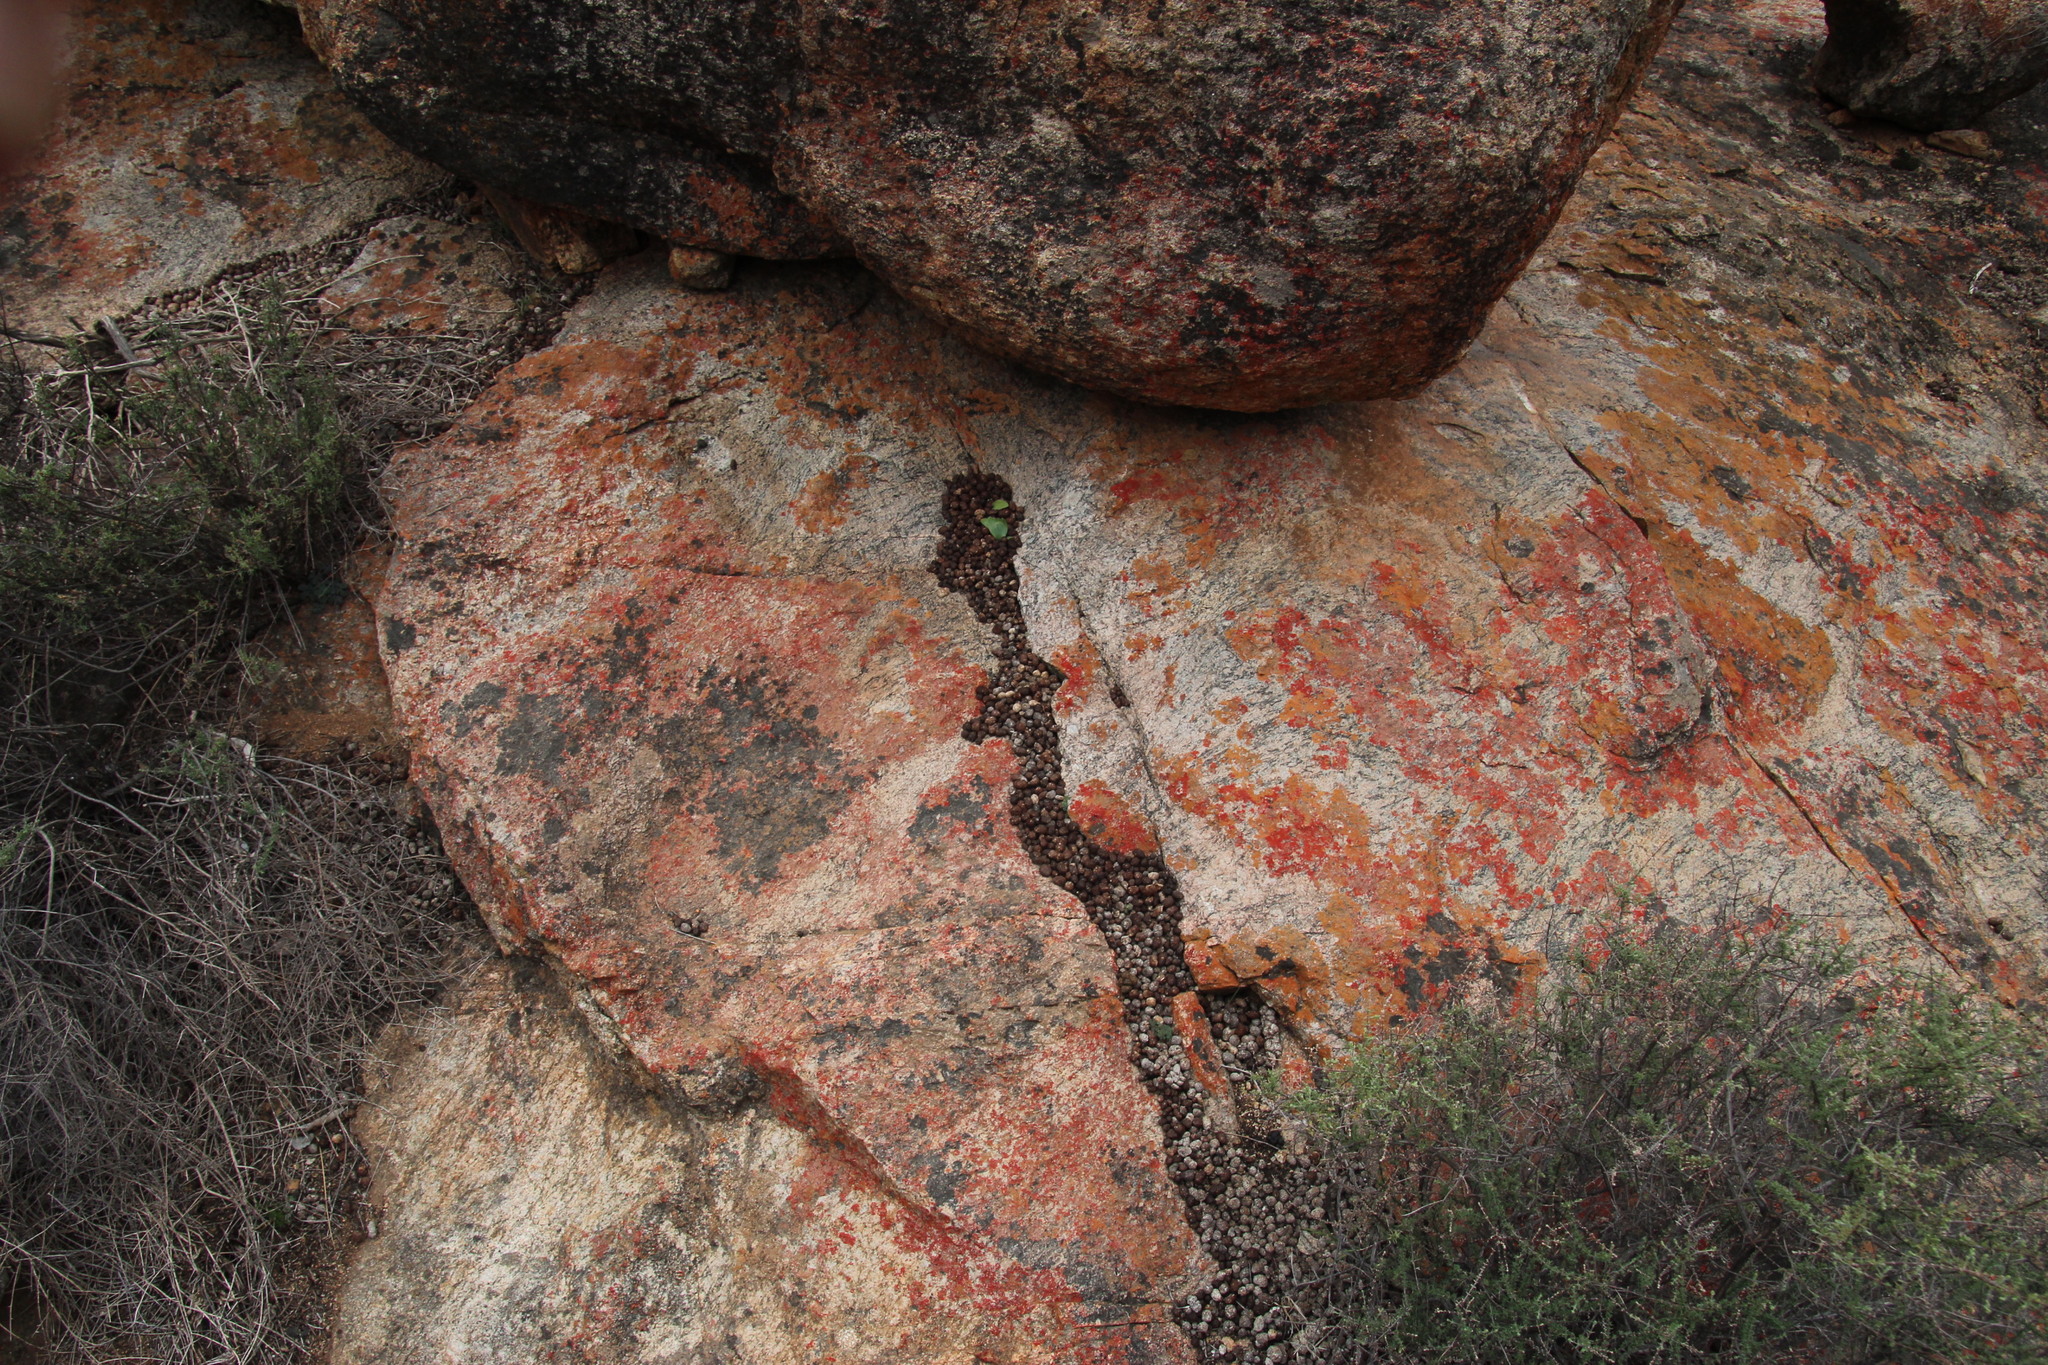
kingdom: Animalia
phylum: Chordata
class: Mammalia
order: Hyracoidea
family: Procaviidae
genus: Procavia
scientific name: Procavia capensis
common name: Rock hyrax
